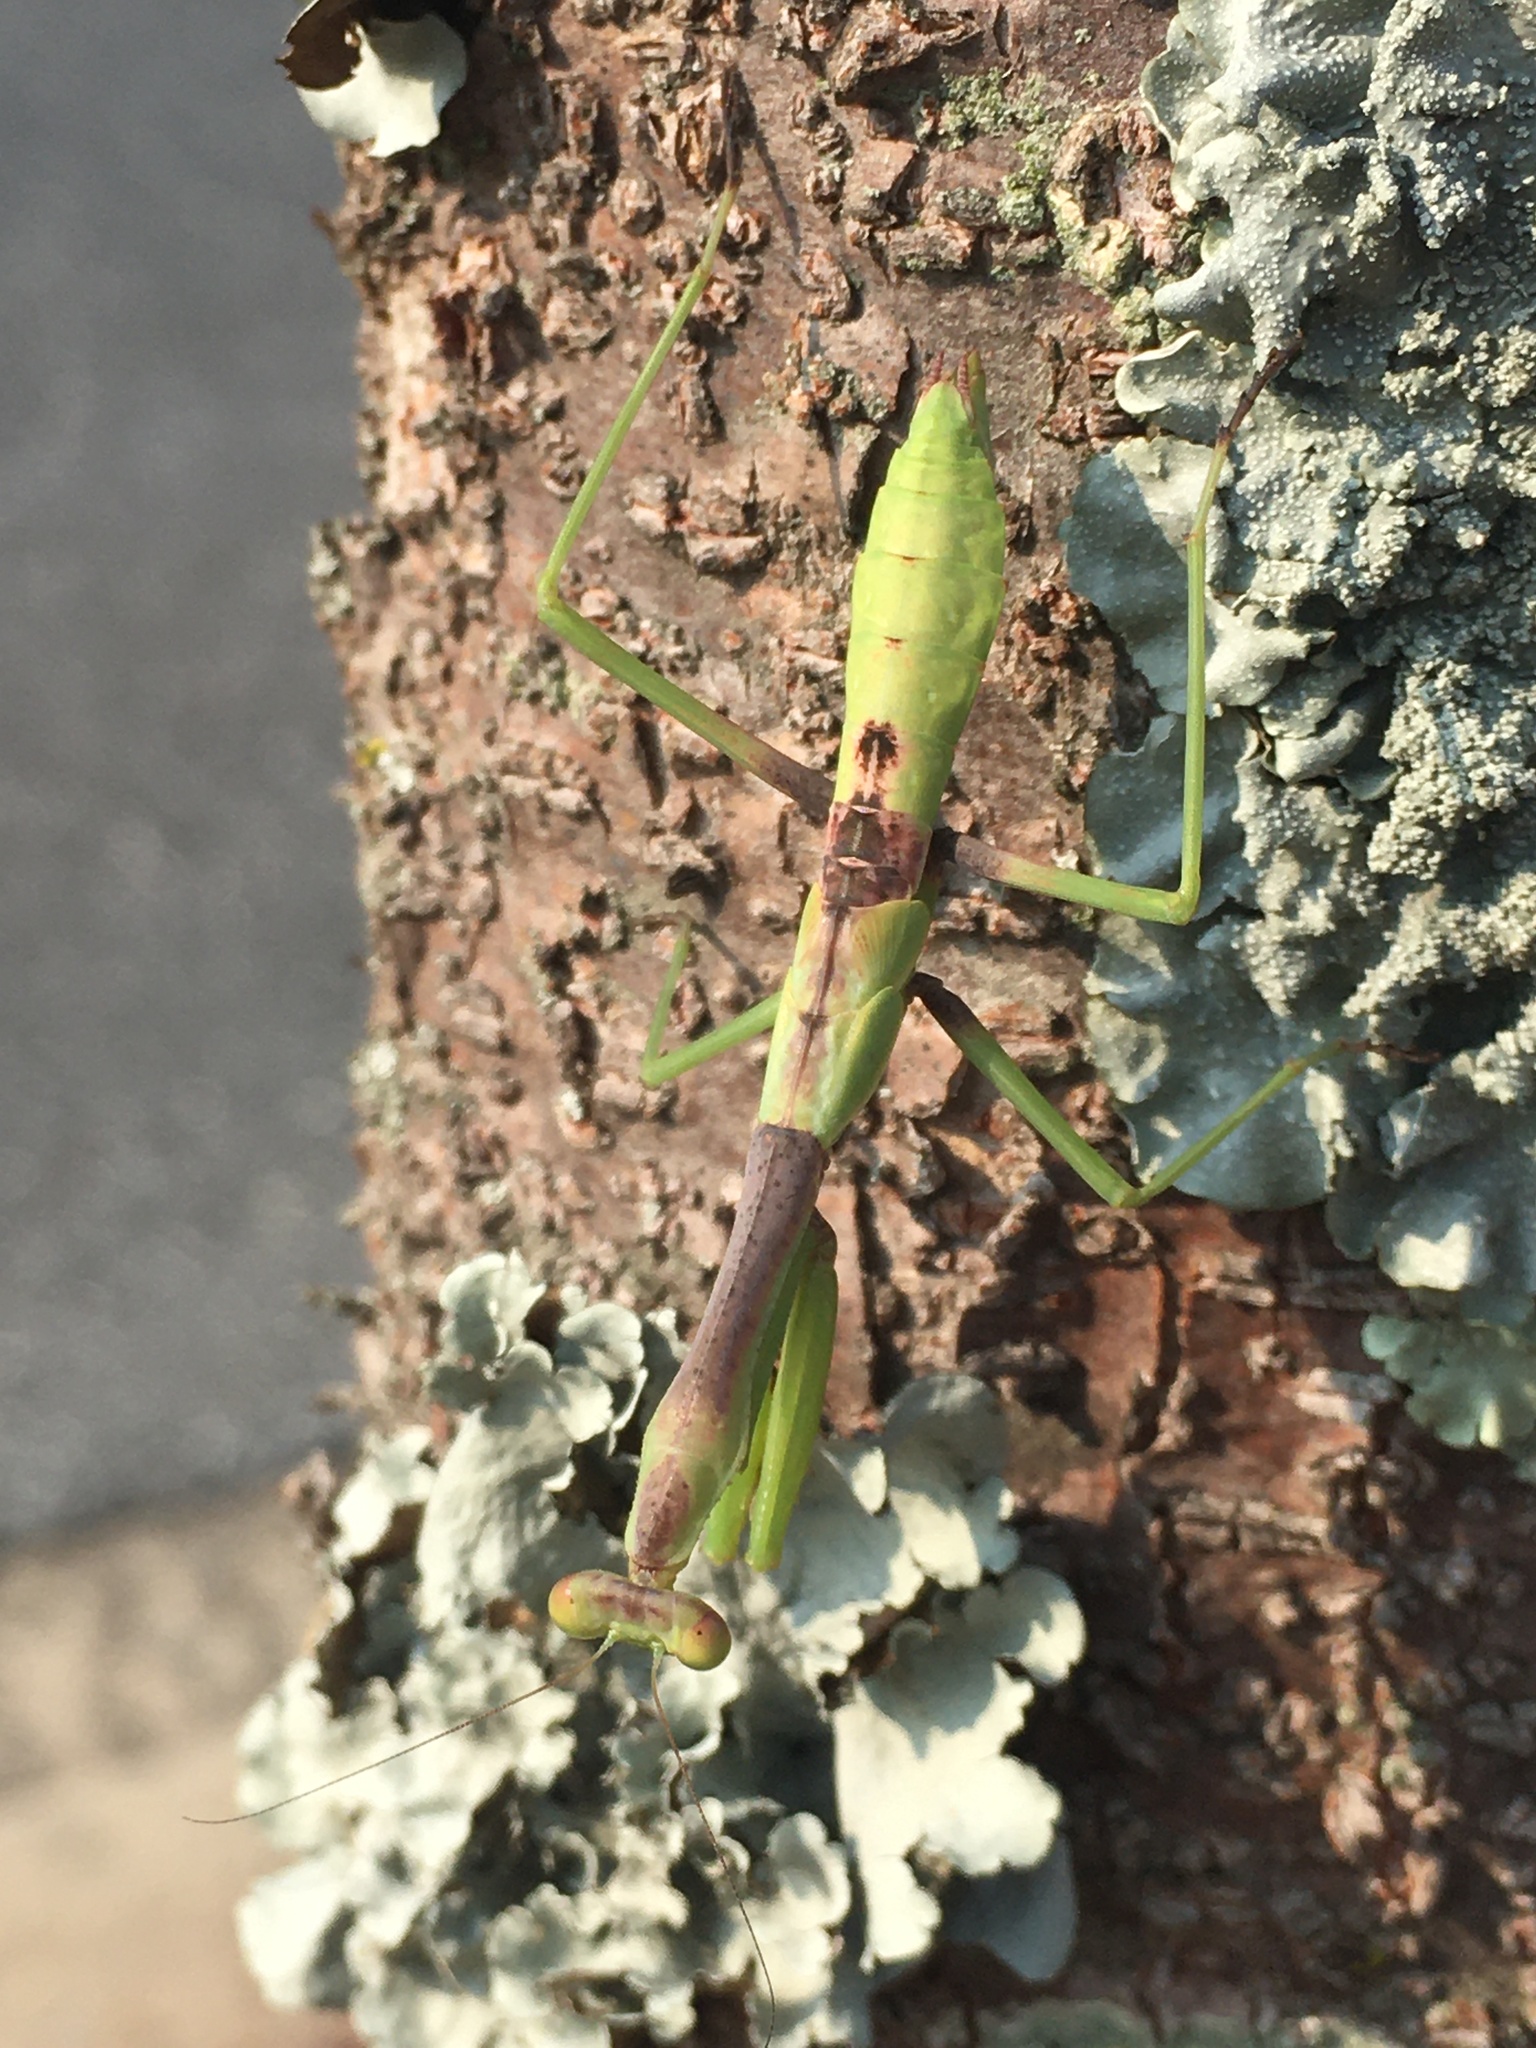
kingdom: Animalia
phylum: Arthropoda
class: Insecta
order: Mantodea
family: Mantidae
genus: Stagmomantis
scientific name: Stagmomantis carolina
